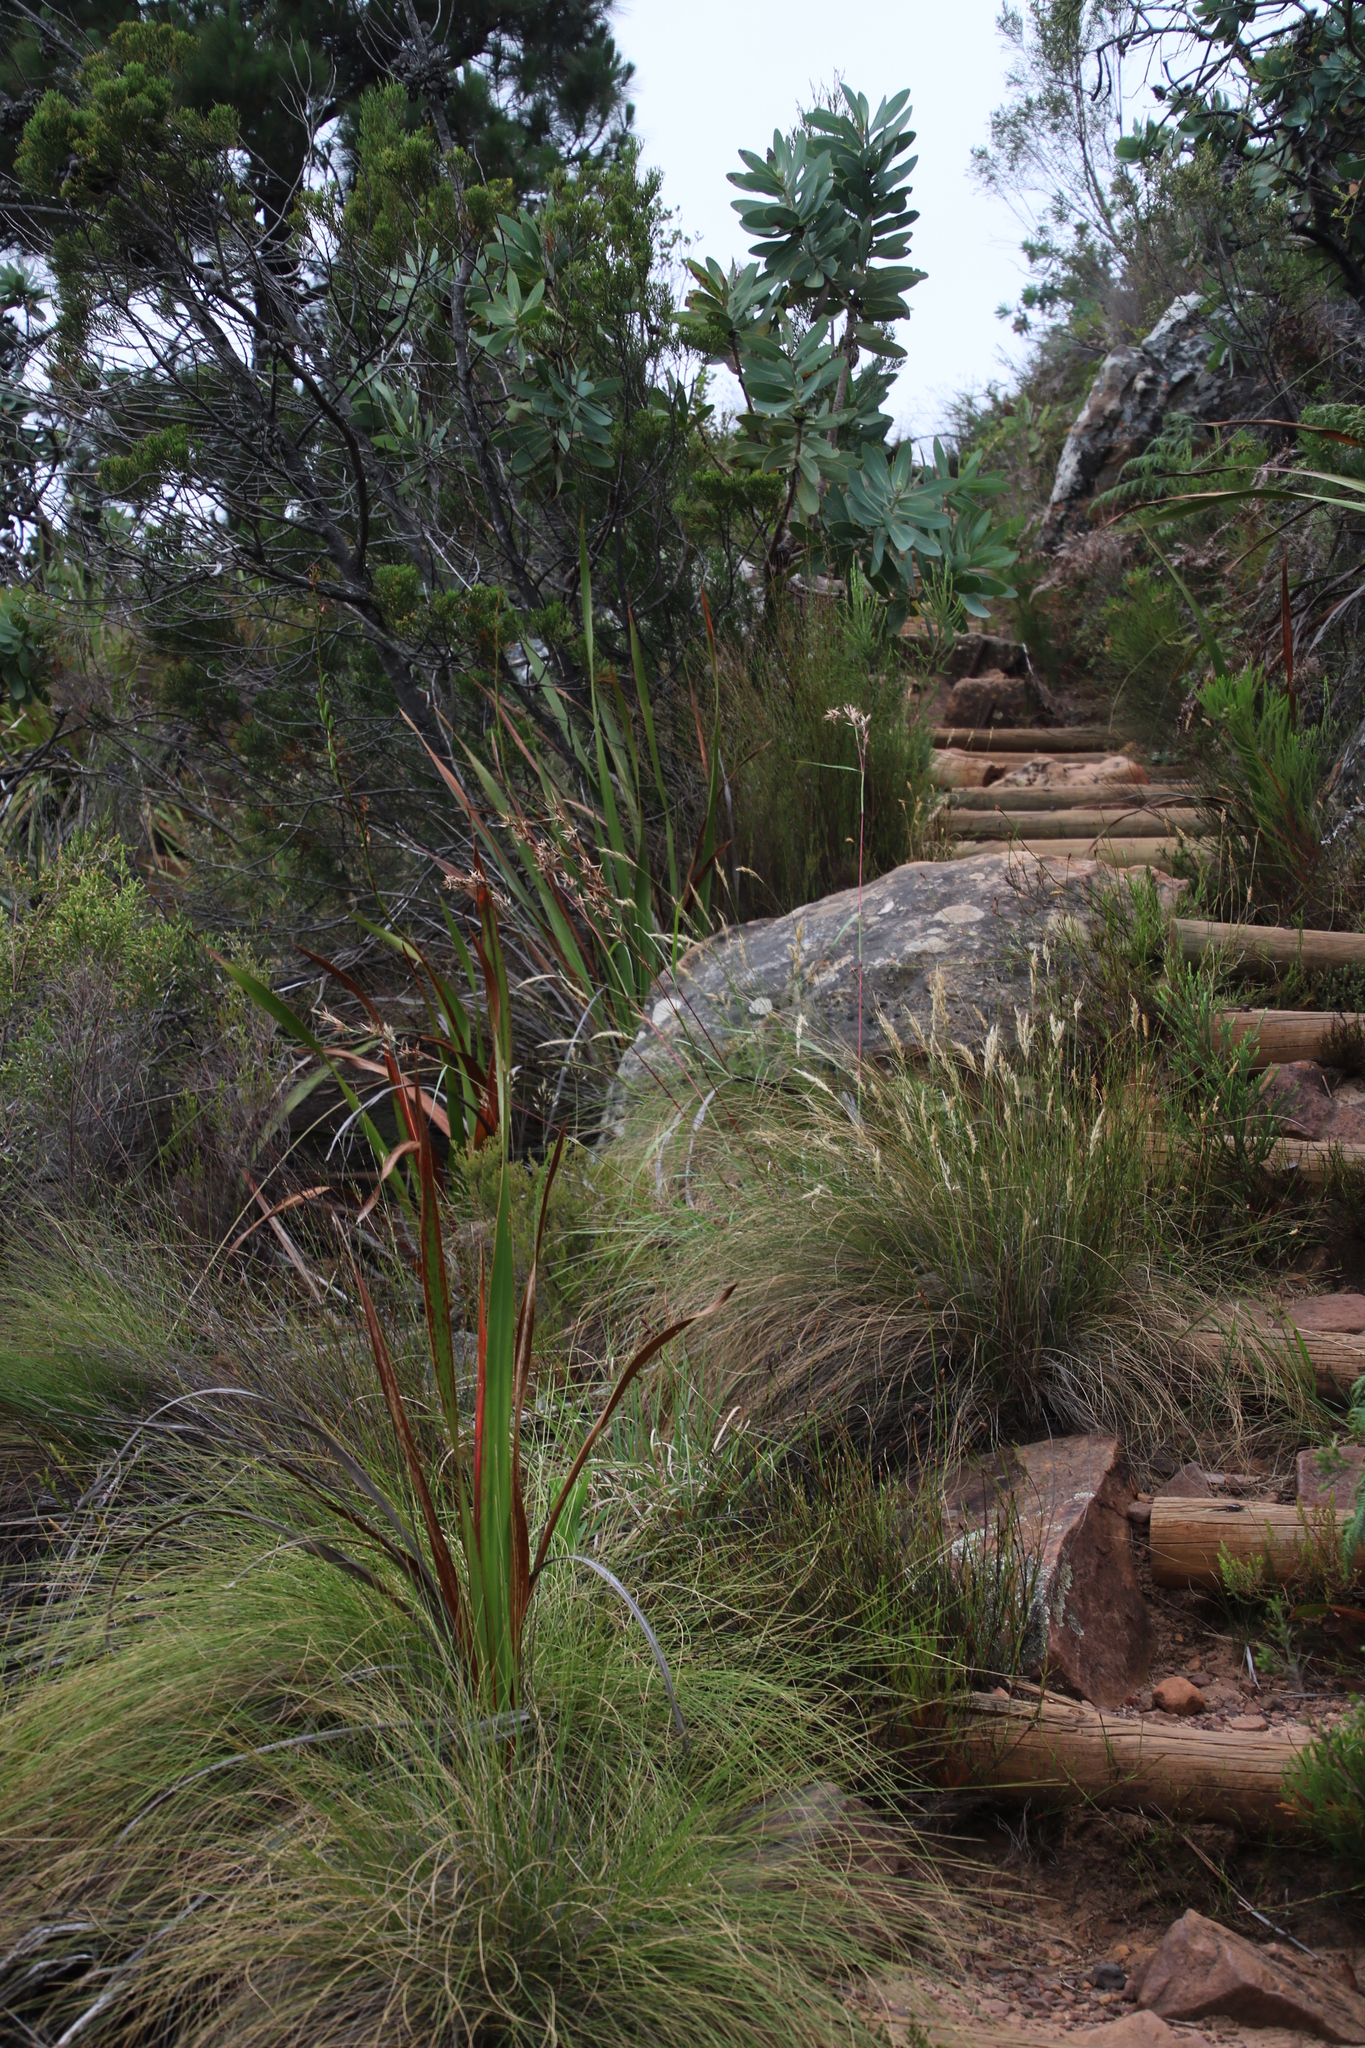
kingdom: Plantae
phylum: Tracheophyta
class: Liliopsida
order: Poales
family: Poaceae
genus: Tenaxia
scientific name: Tenaxia stricta
